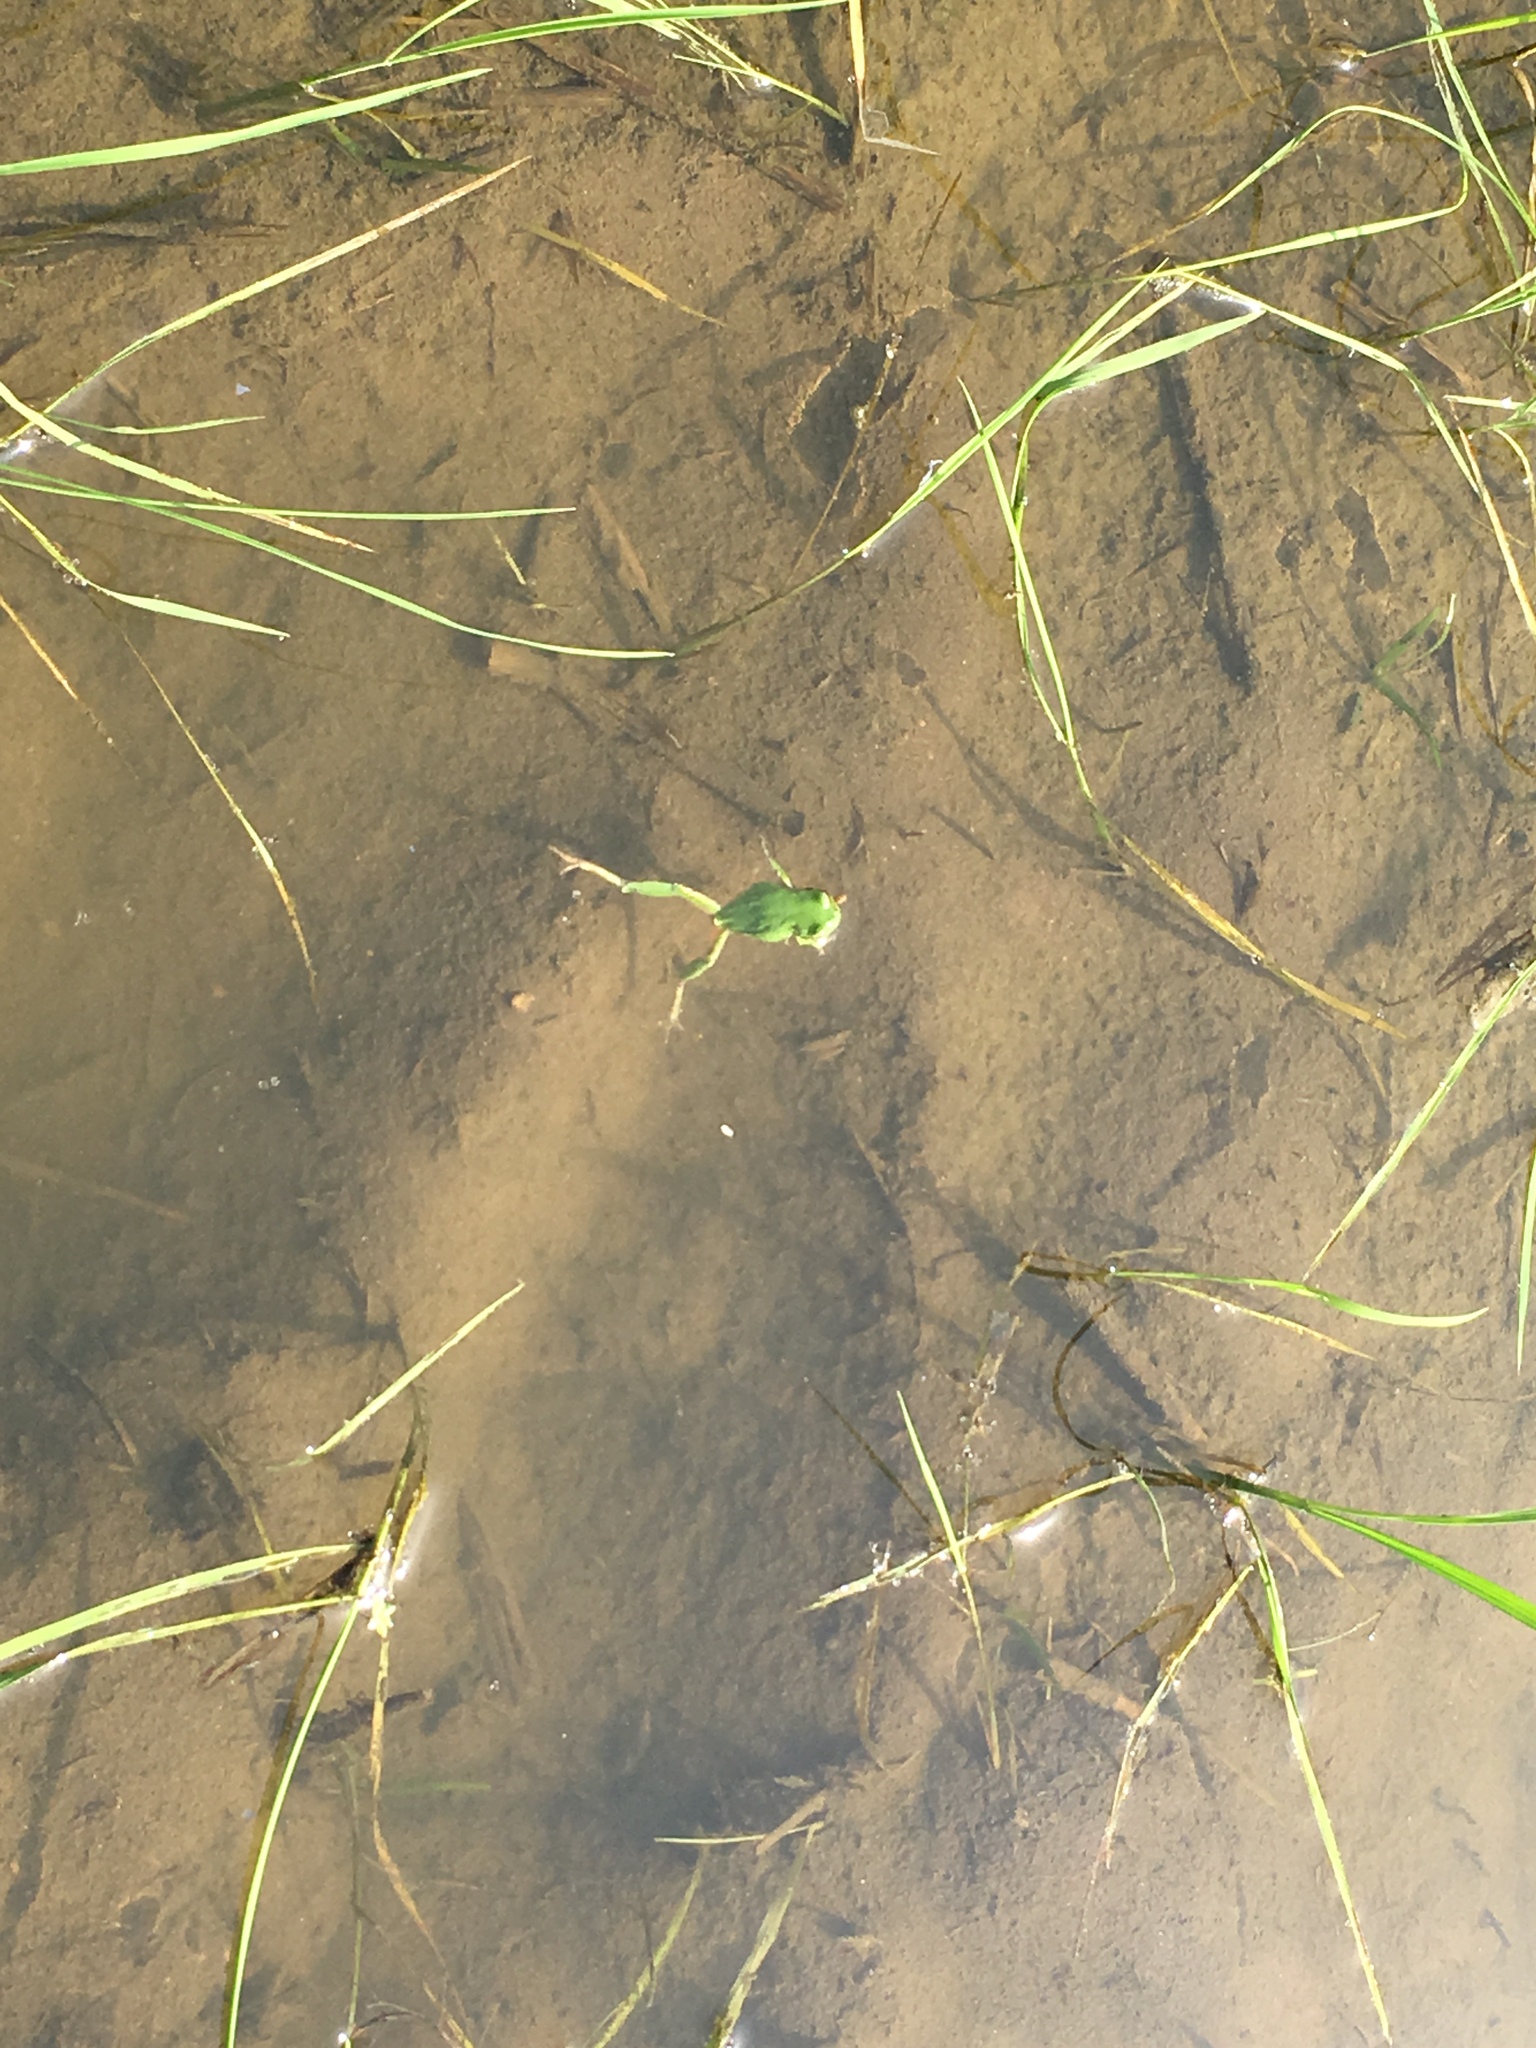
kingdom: Animalia
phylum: Chordata
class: Amphibia
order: Anura
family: Hylidae
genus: Dryophytes
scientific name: Dryophytes japonicus
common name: Japanese treefrog
